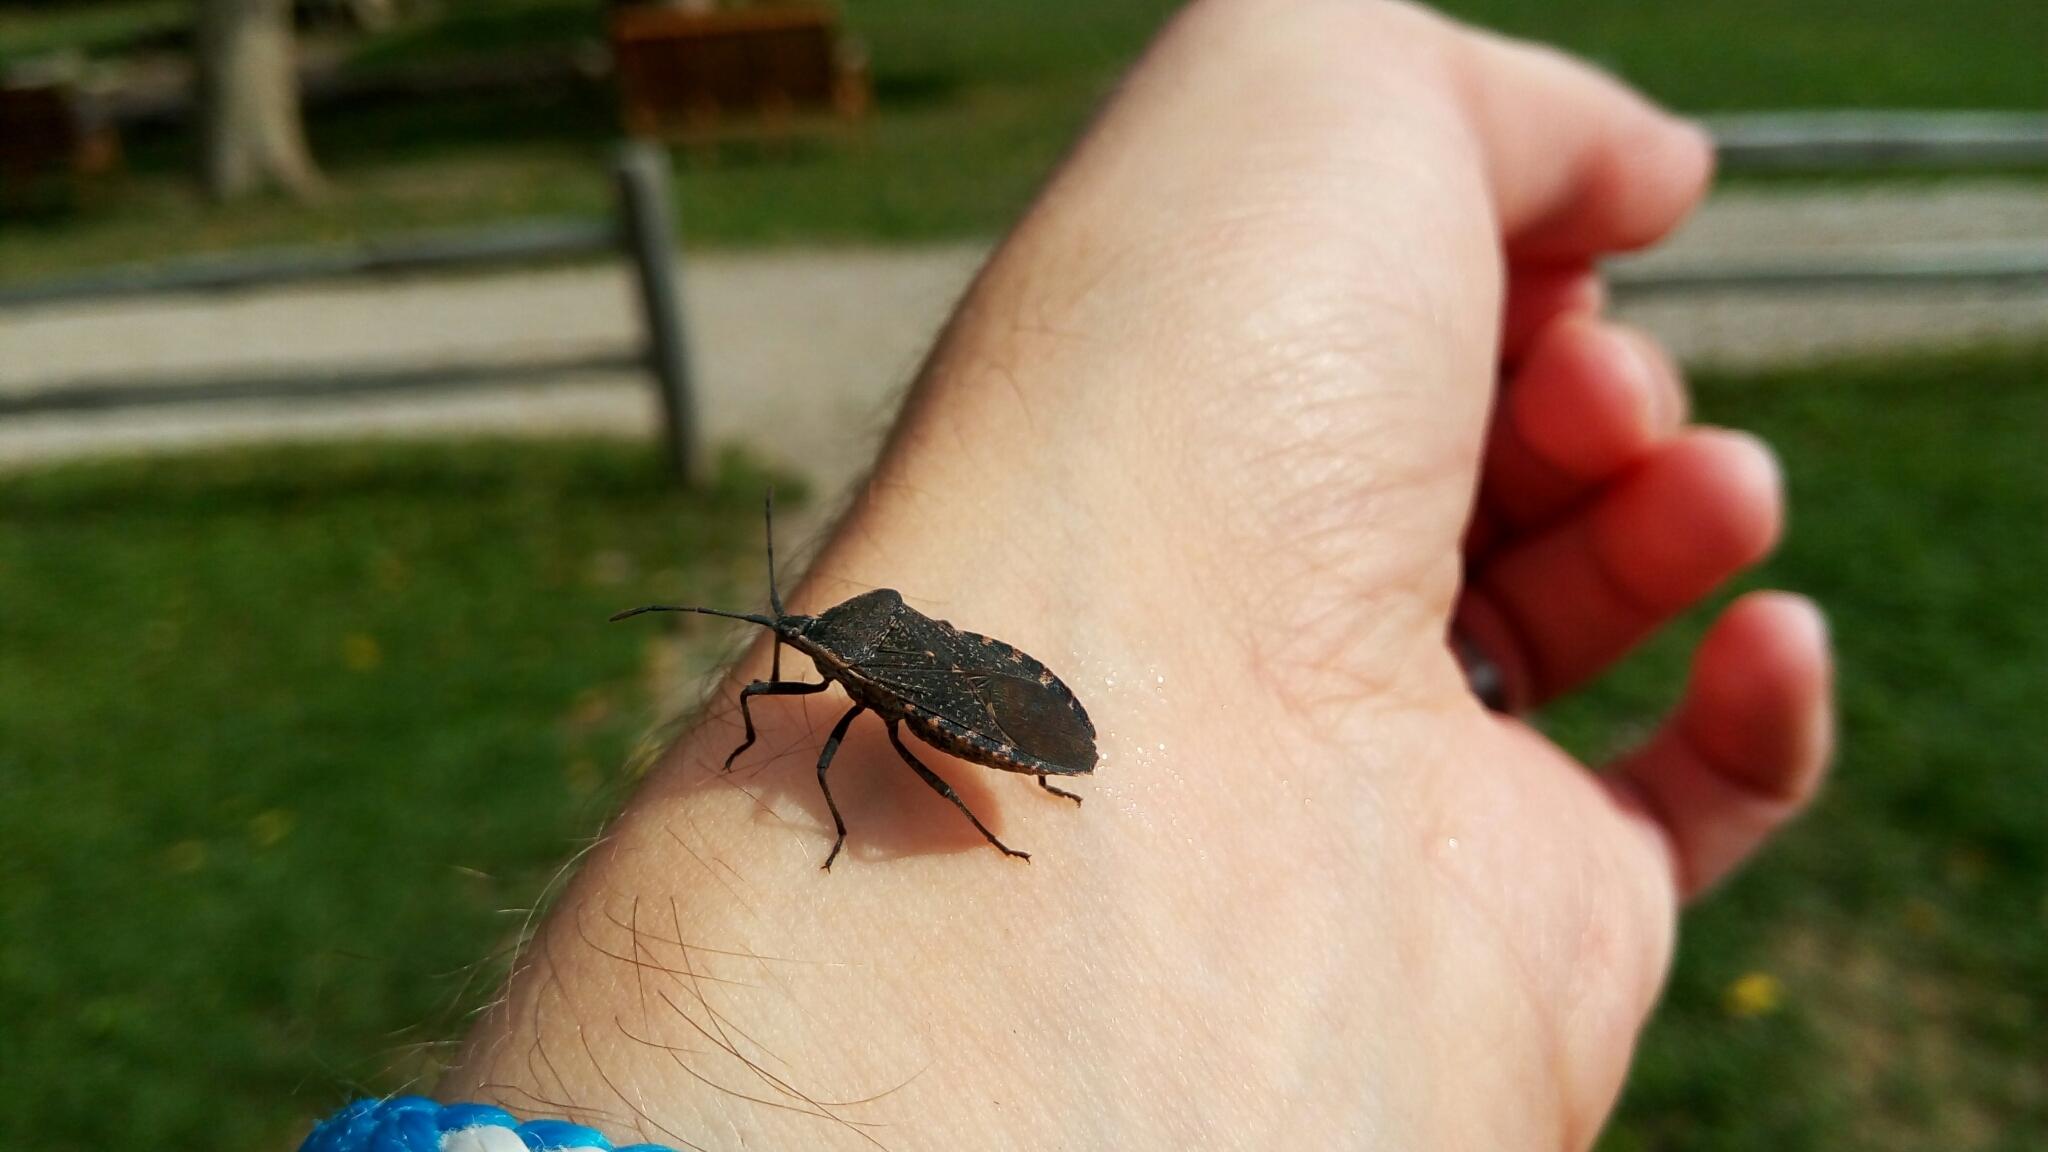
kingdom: Animalia
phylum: Arthropoda
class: Insecta
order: Hemiptera
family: Coreidae
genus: Anasa
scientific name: Anasa tristis
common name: Squash bug
